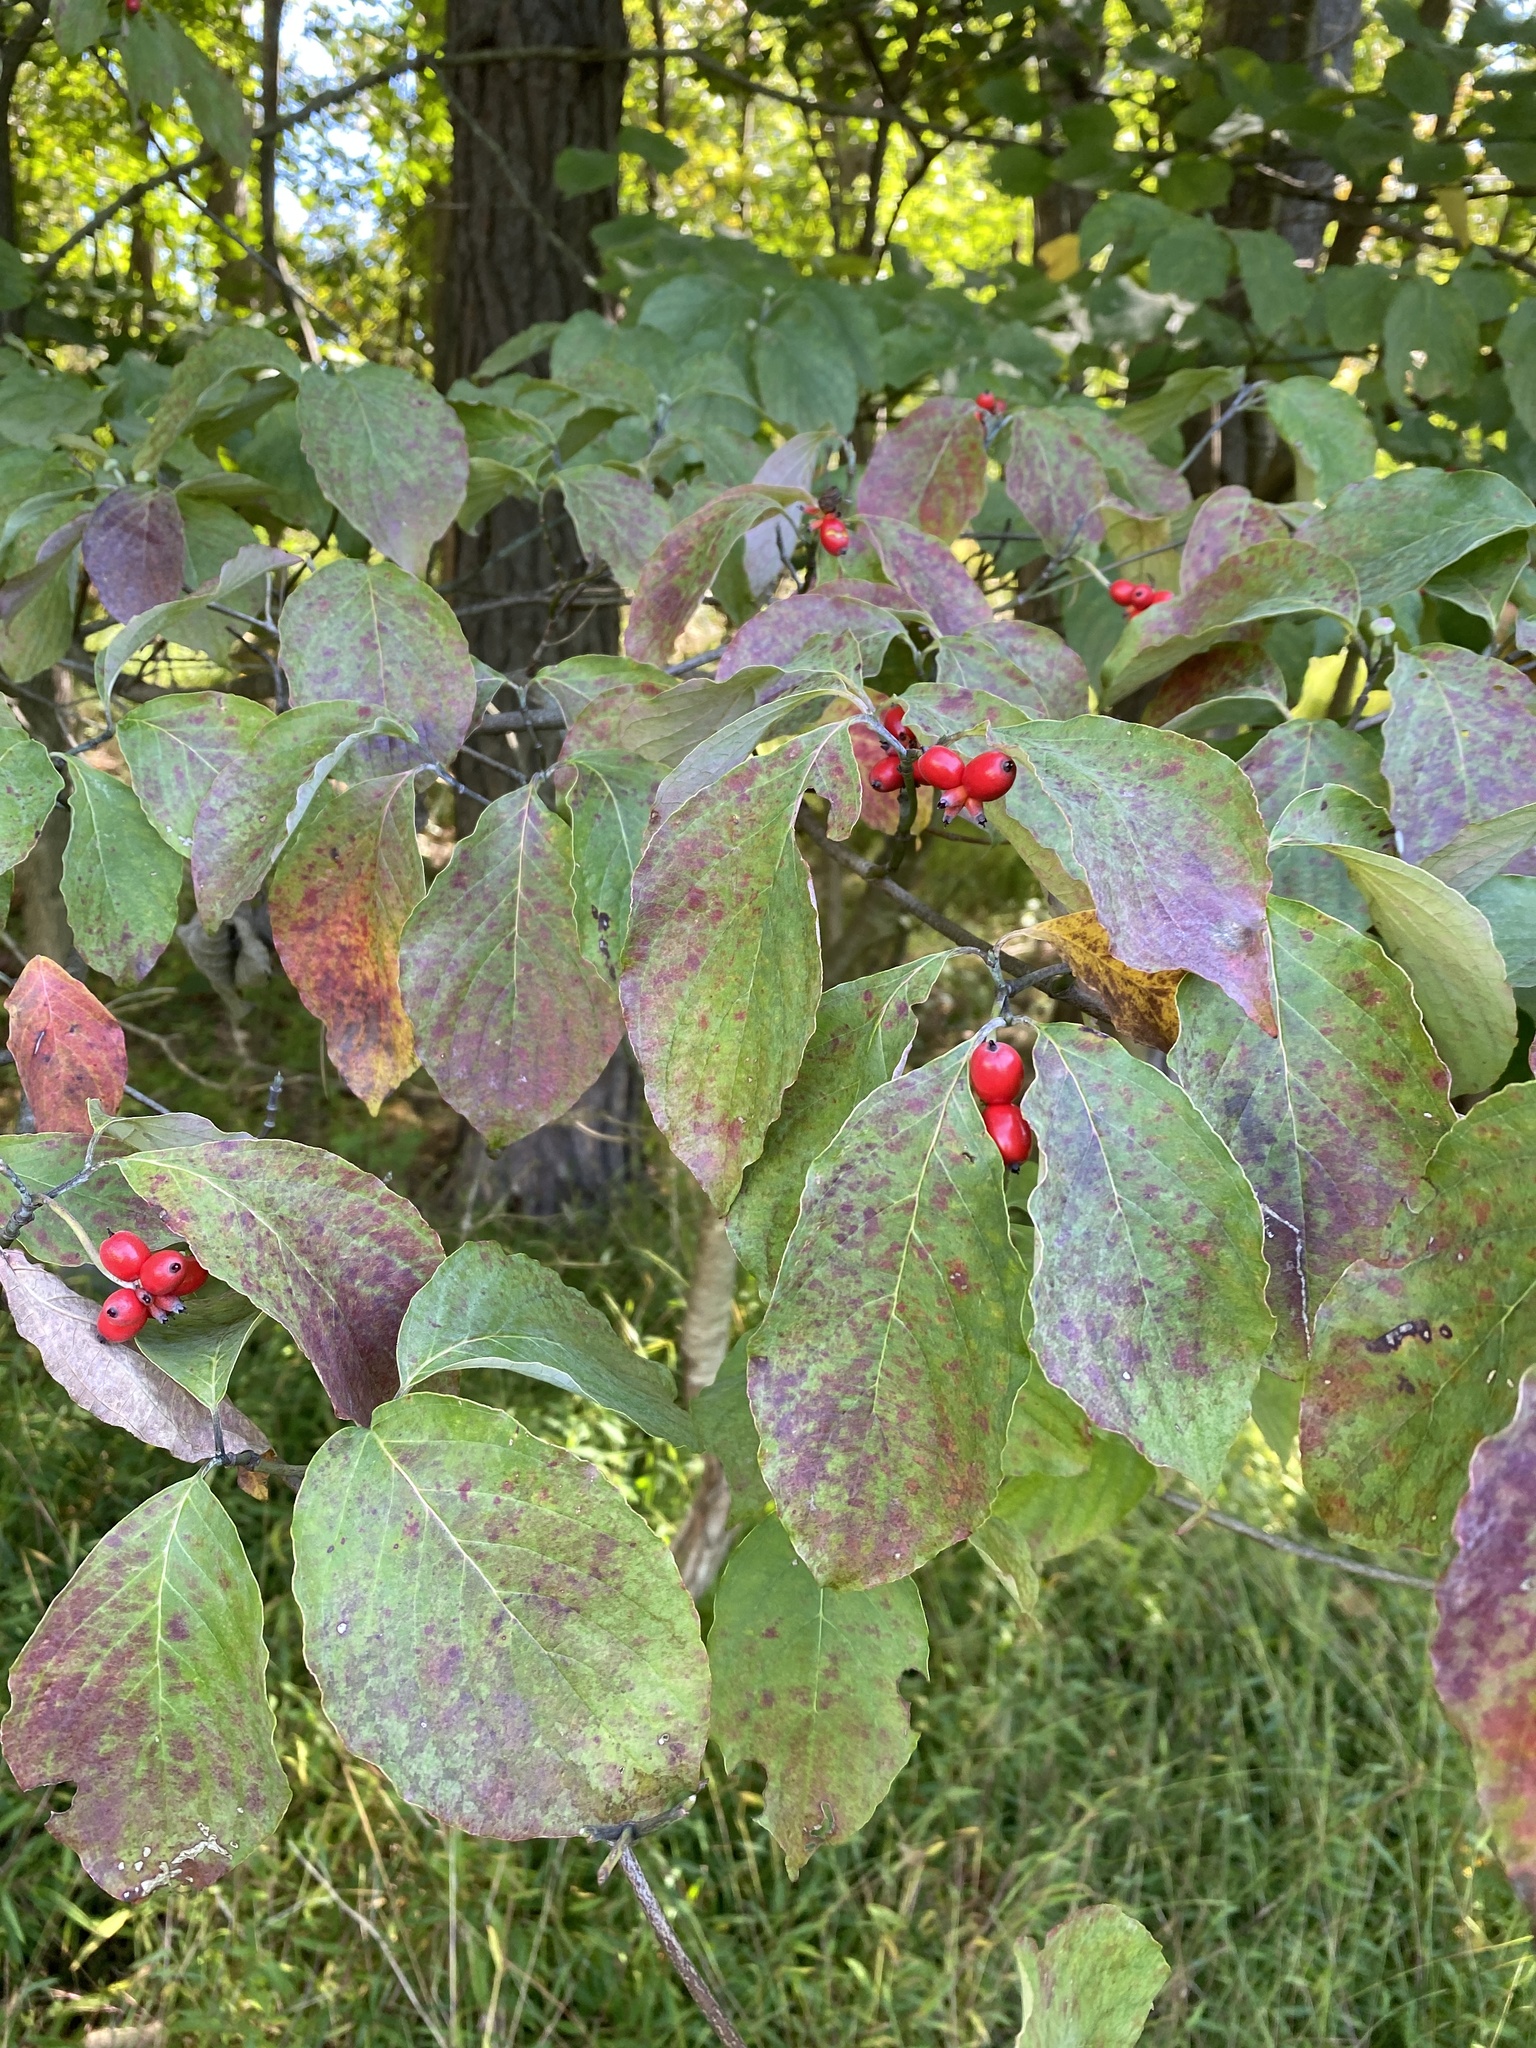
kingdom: Plantae
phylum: Tracheophyta
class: Magnoliopsida
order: Cornales
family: Cornaceae
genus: Cornus
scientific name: Cornus florida
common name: Flowering dogwood
